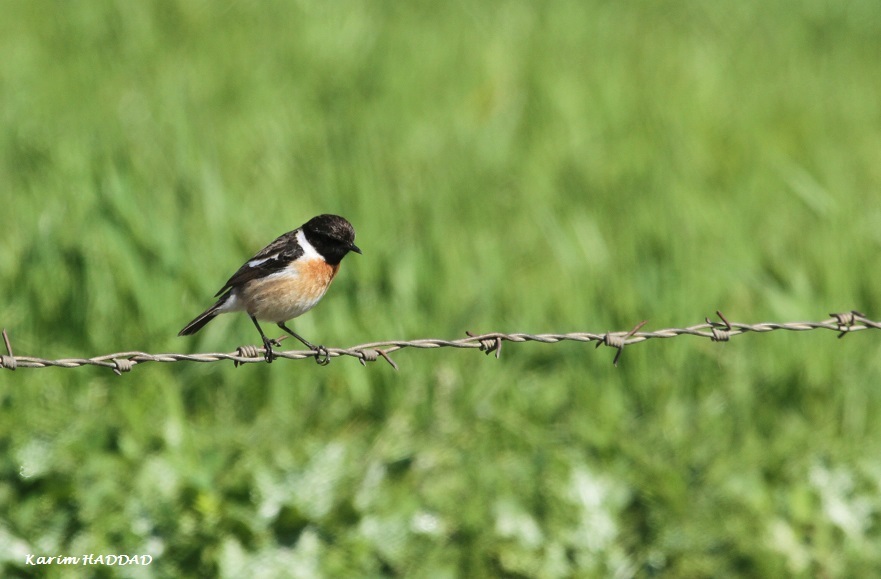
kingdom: Animalia
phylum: Chordata
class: Aves
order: Passeriformes
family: Muscicapidae
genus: Saxicola
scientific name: Saxicola rubicola
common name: European stonechat
